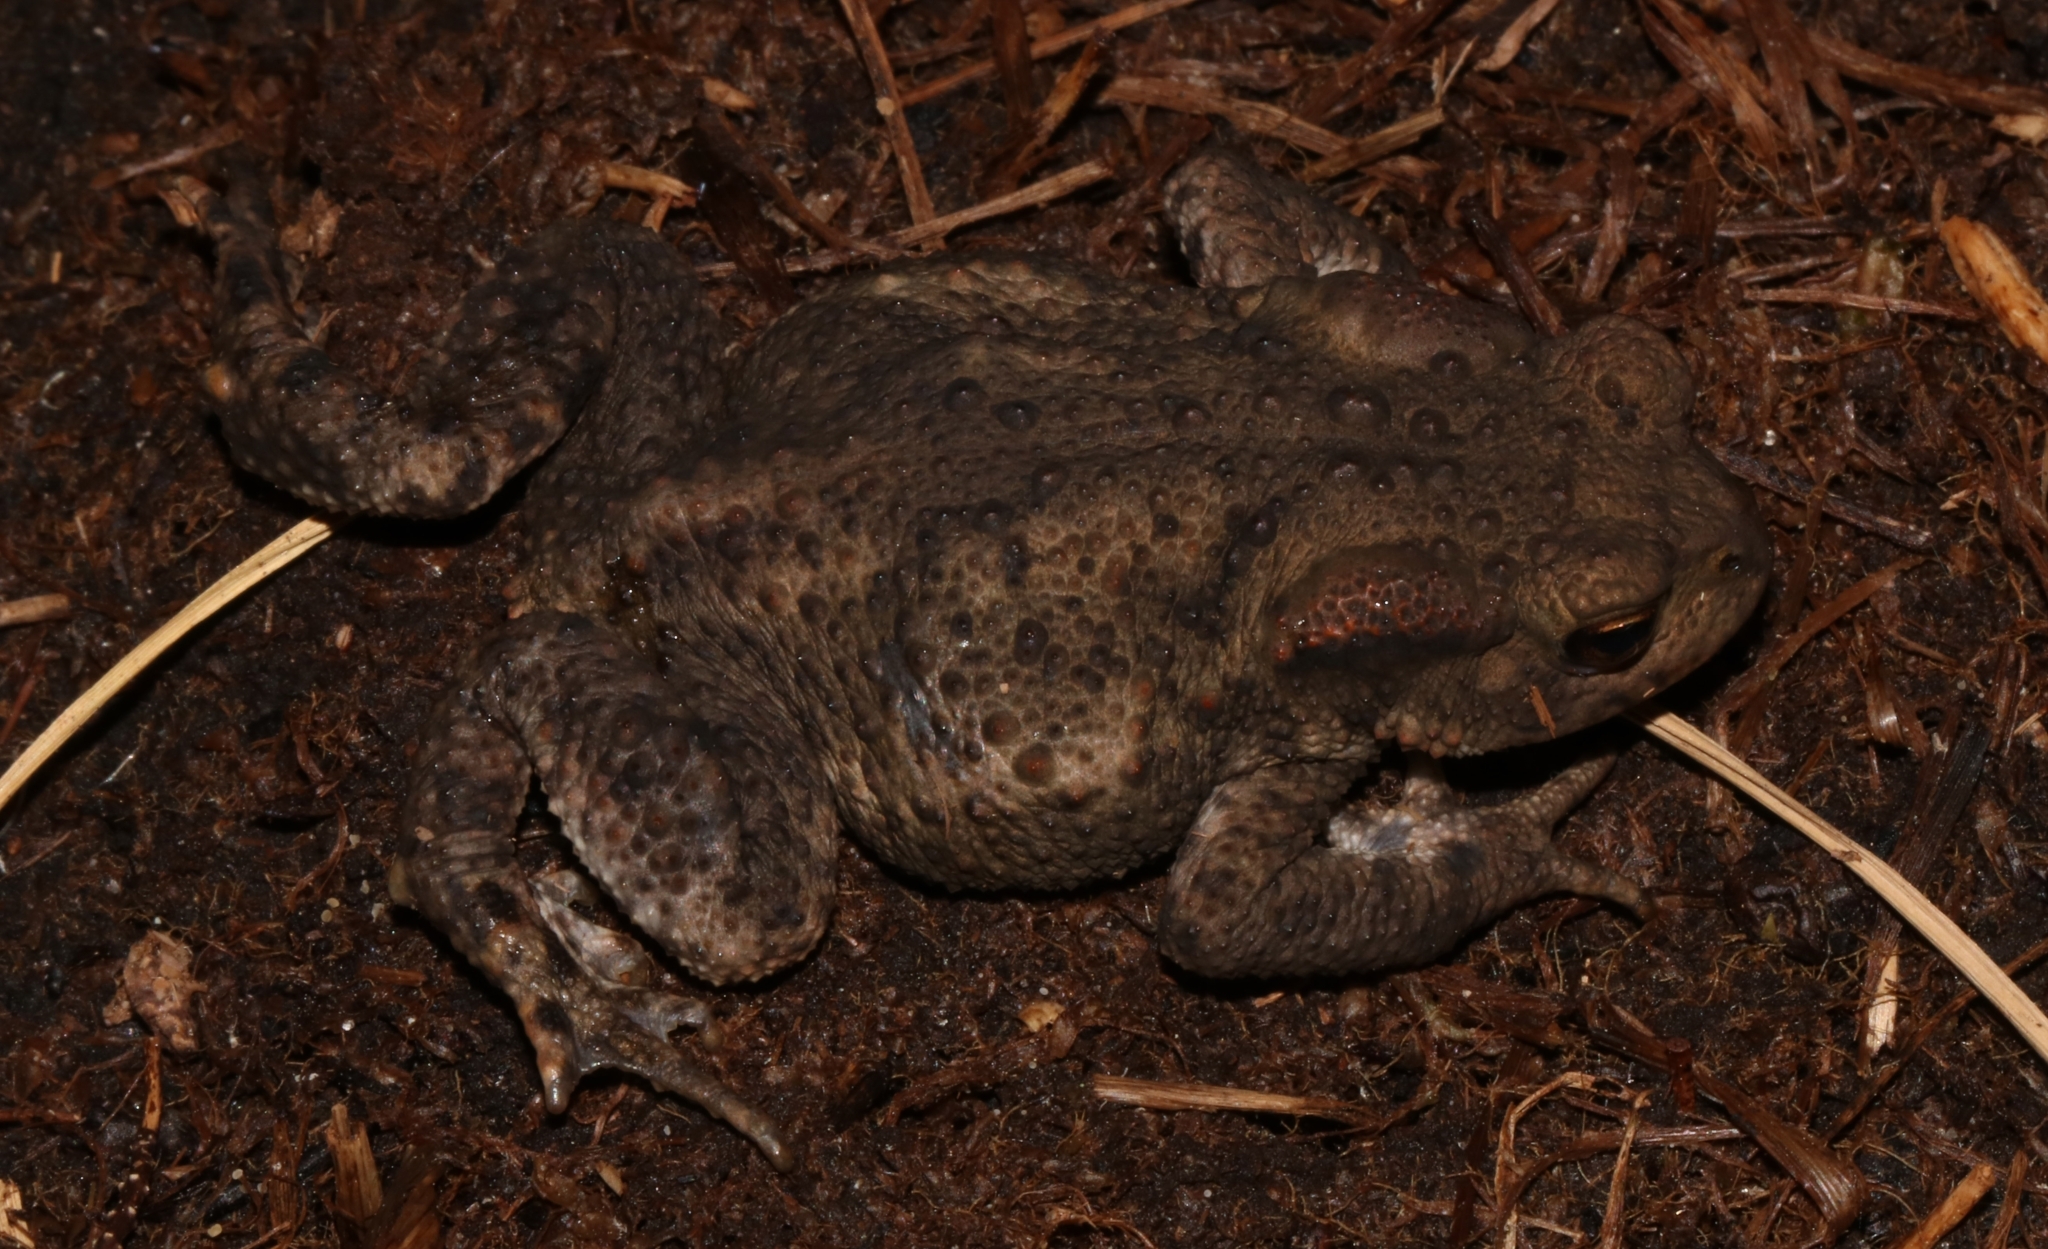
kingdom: Animalia
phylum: Chordata
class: Amphibia
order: Anura
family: Bufonidae
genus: Bufo
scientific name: Bufo bufo
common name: Common toad
